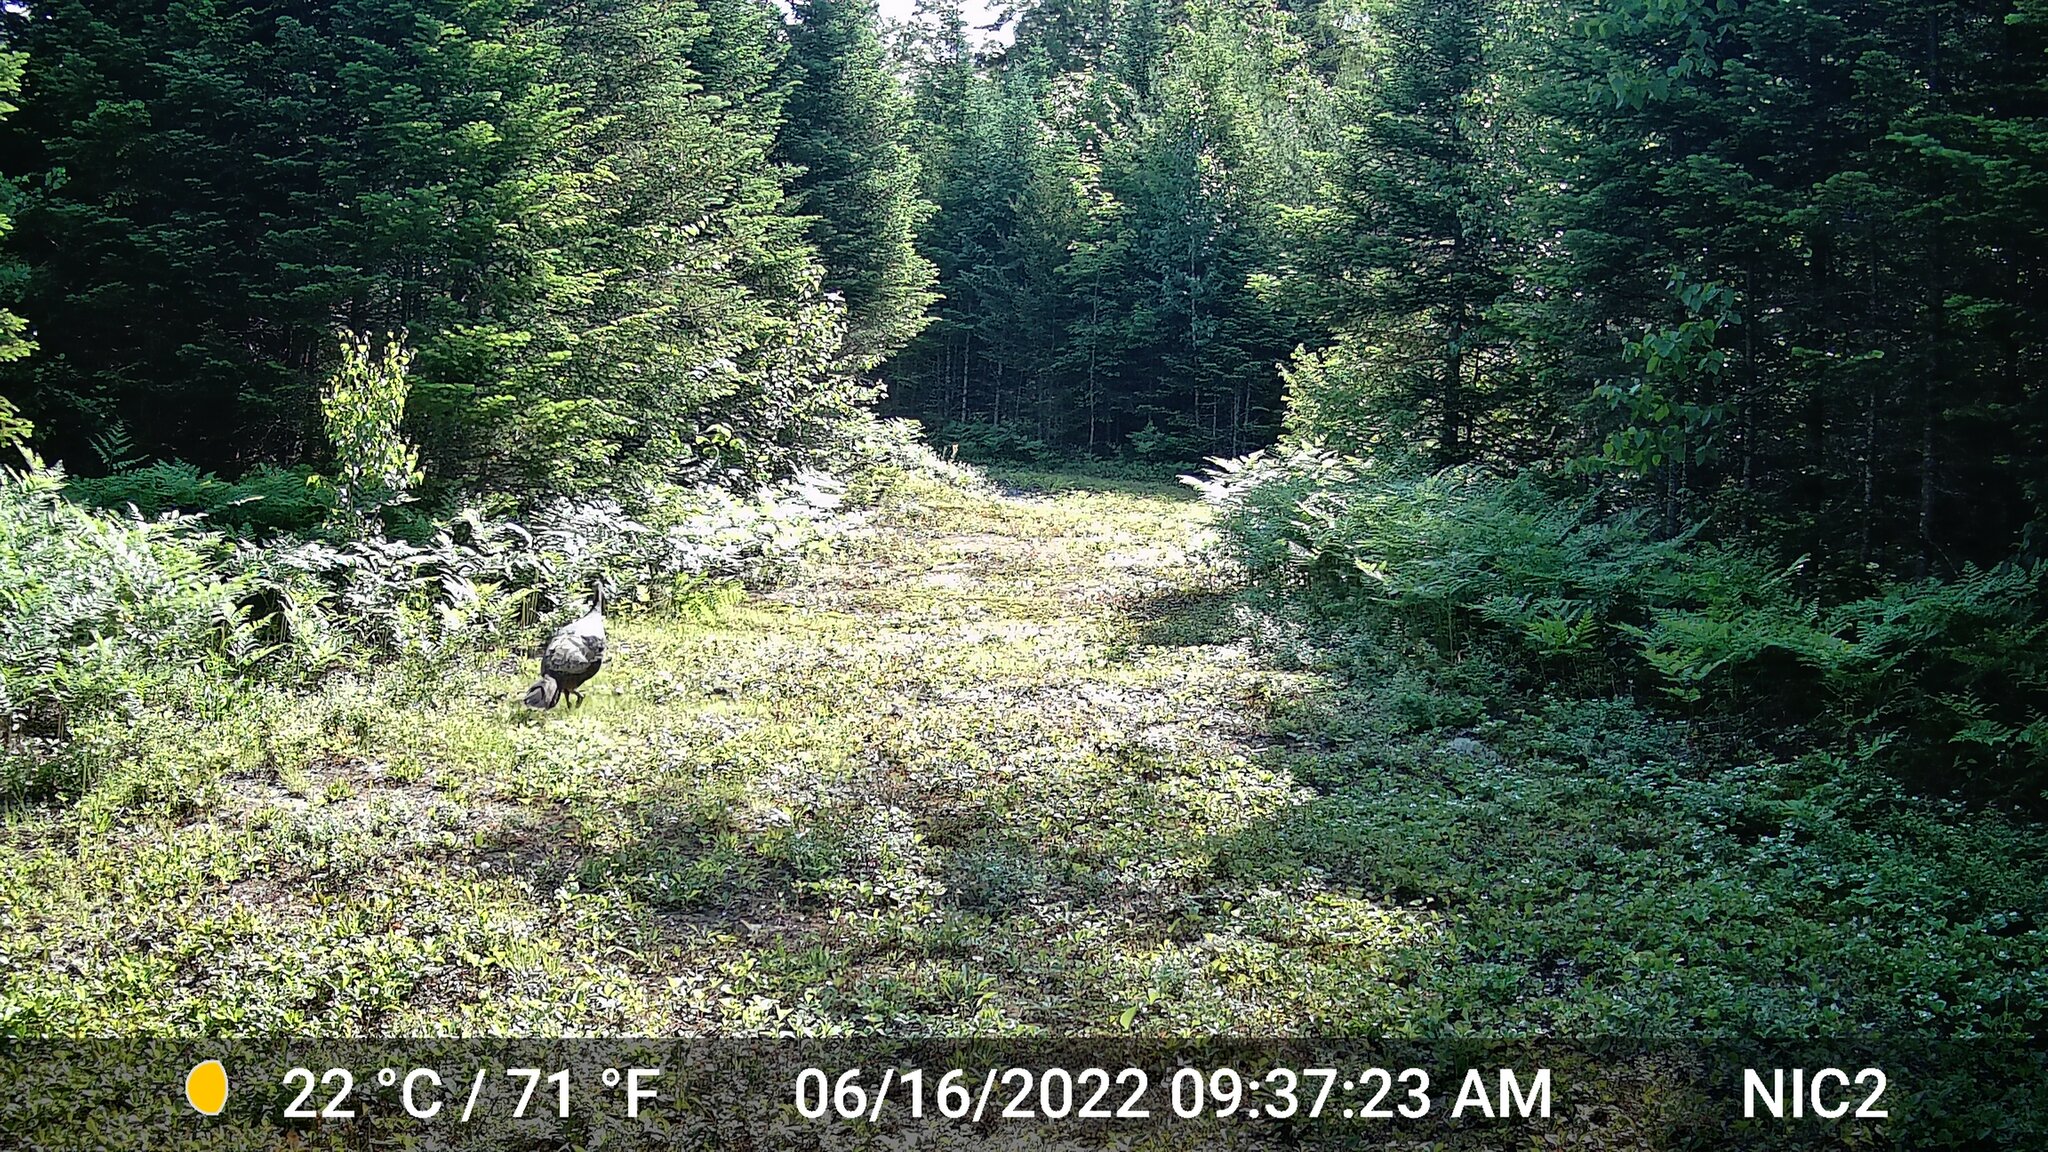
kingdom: Animalia
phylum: Chordata
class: Aves
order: Galliformes
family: Phasianidae
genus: Meleagris
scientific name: Meleagris gallopavo
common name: Wild turkey
